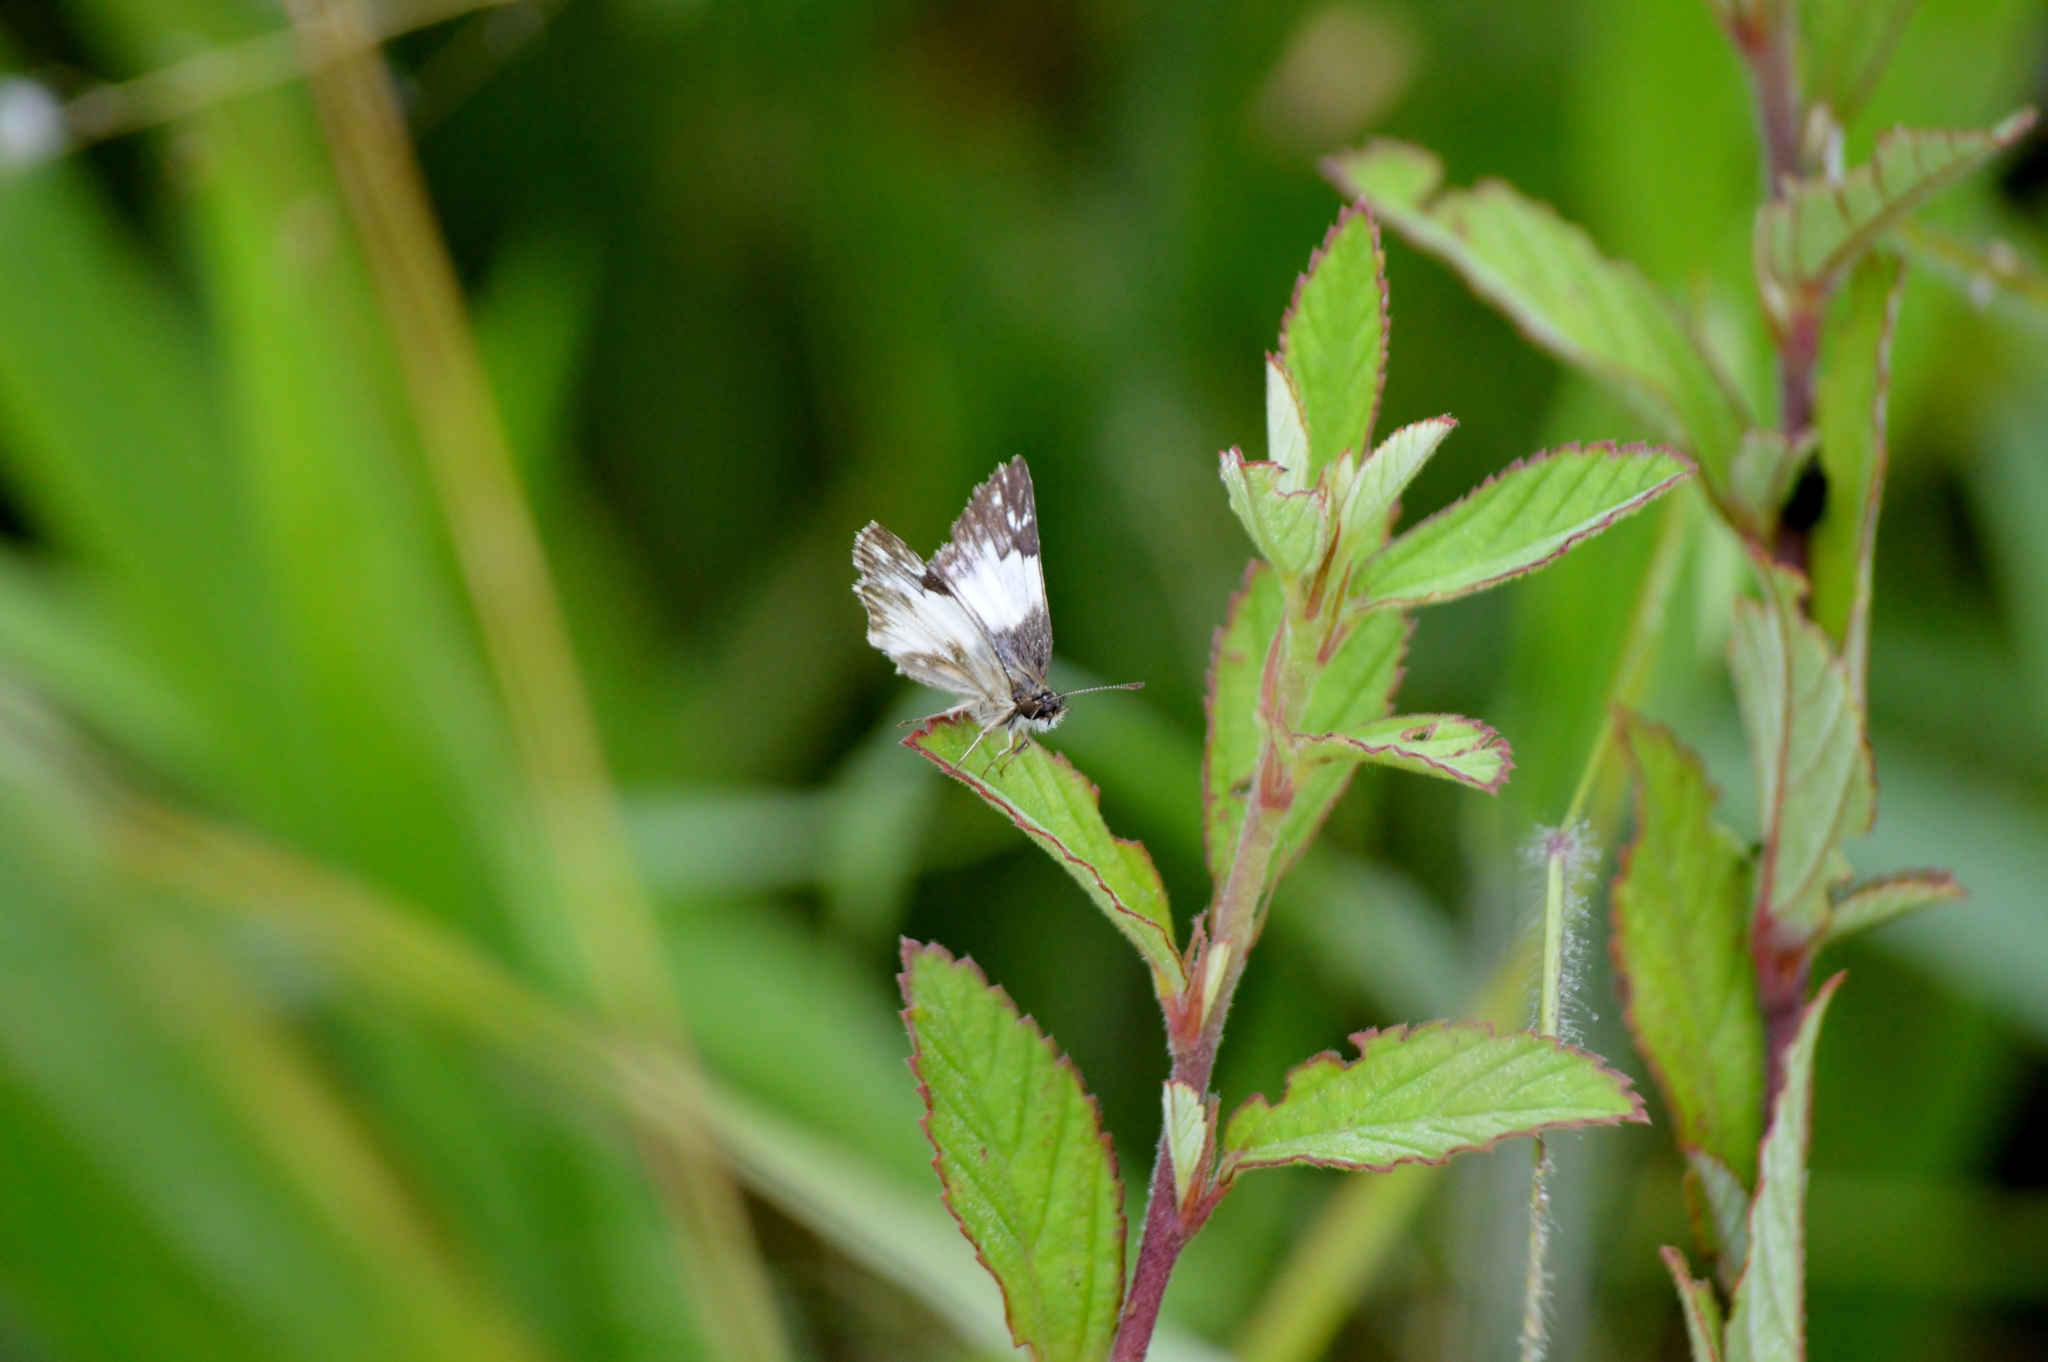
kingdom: Animalia
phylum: Arthropoda
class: Insecta
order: Lepidoptera
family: Hesperiidae
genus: Heliopetes
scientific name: Heliopetes omrina
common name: Stained white-skipper
